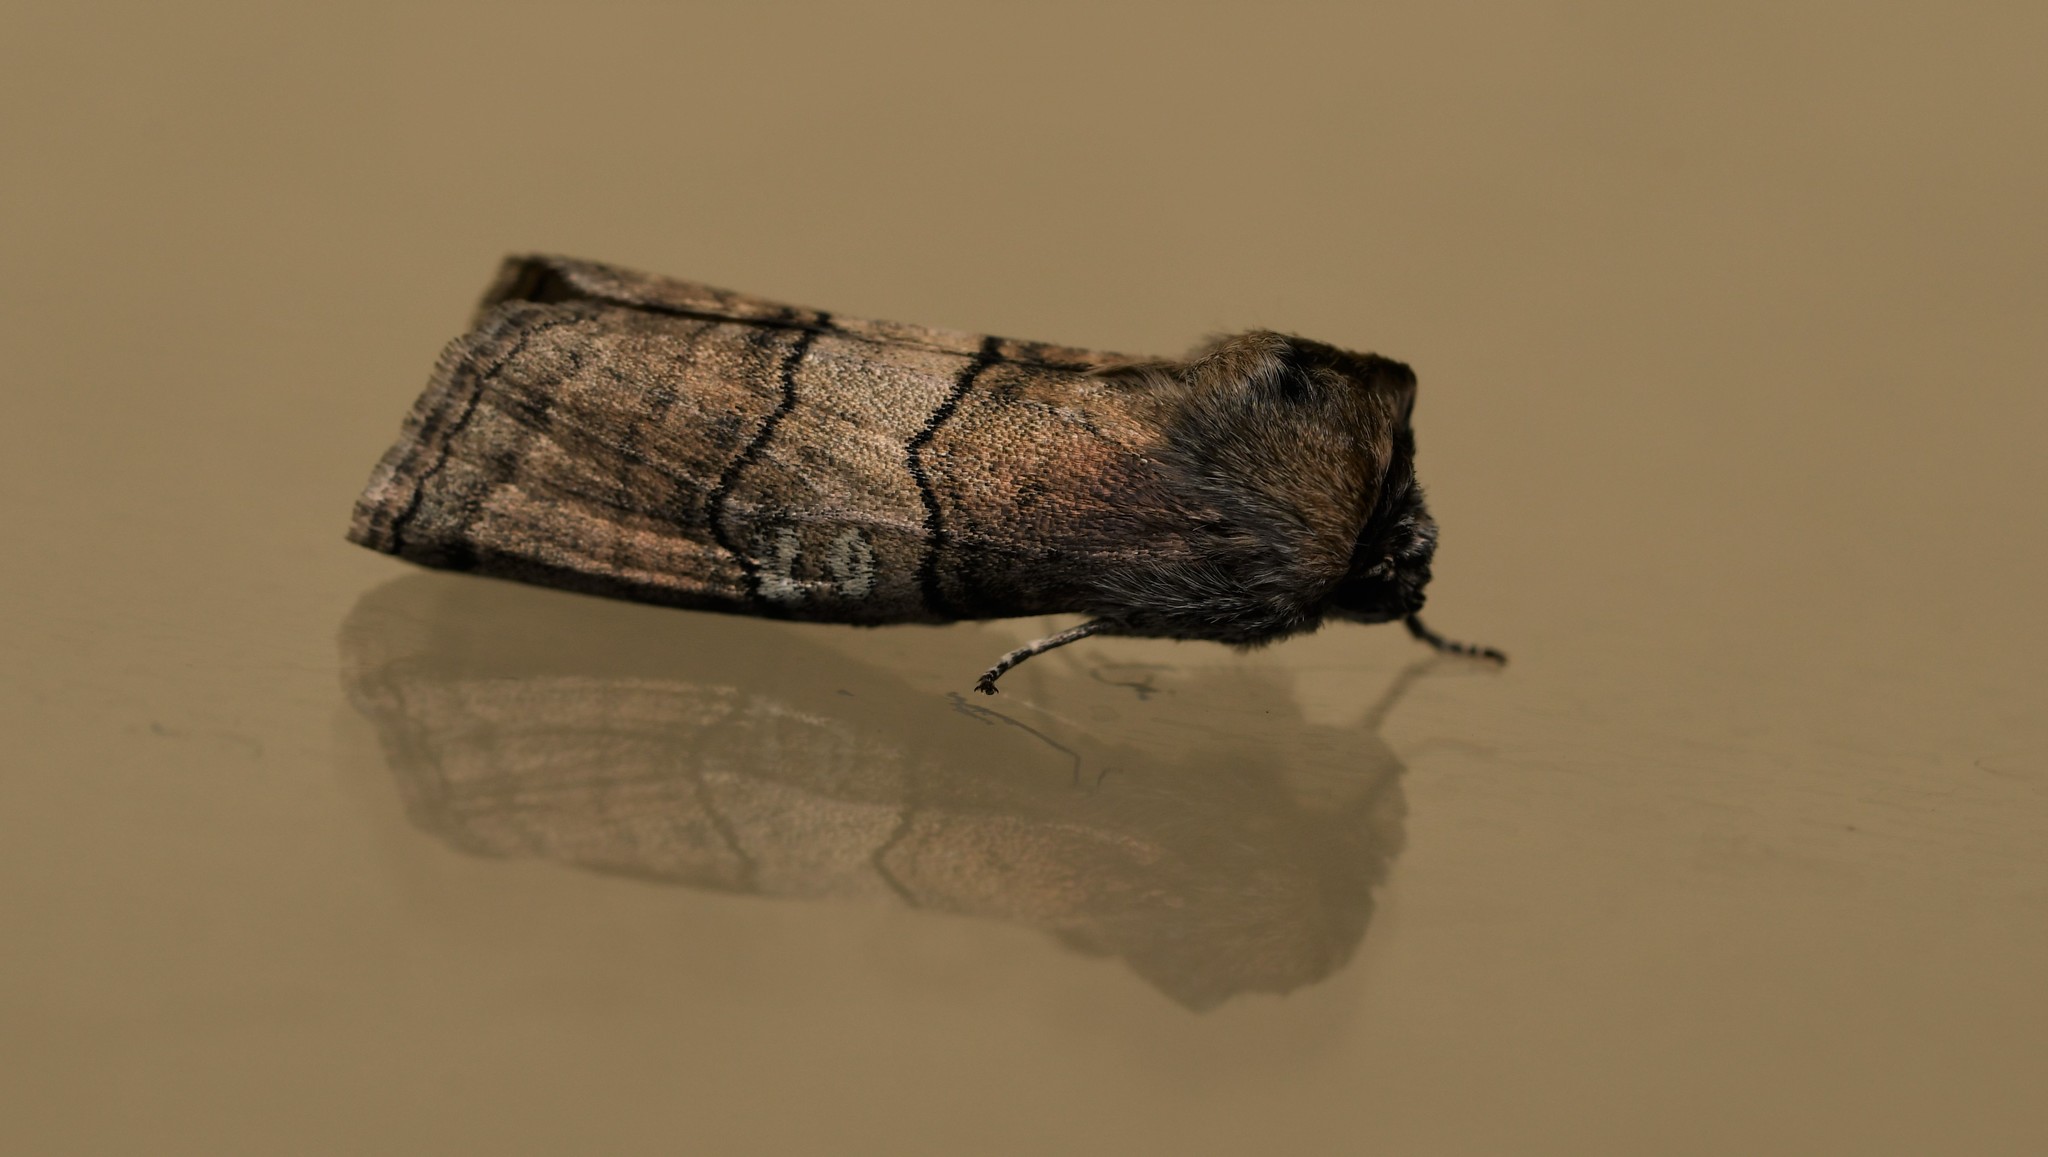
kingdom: Animalia
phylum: Arthropoda
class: Insecta
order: Lepidoptera
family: Drepanidae
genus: Tethea
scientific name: Tethea ocularis
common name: Figure of eighty
